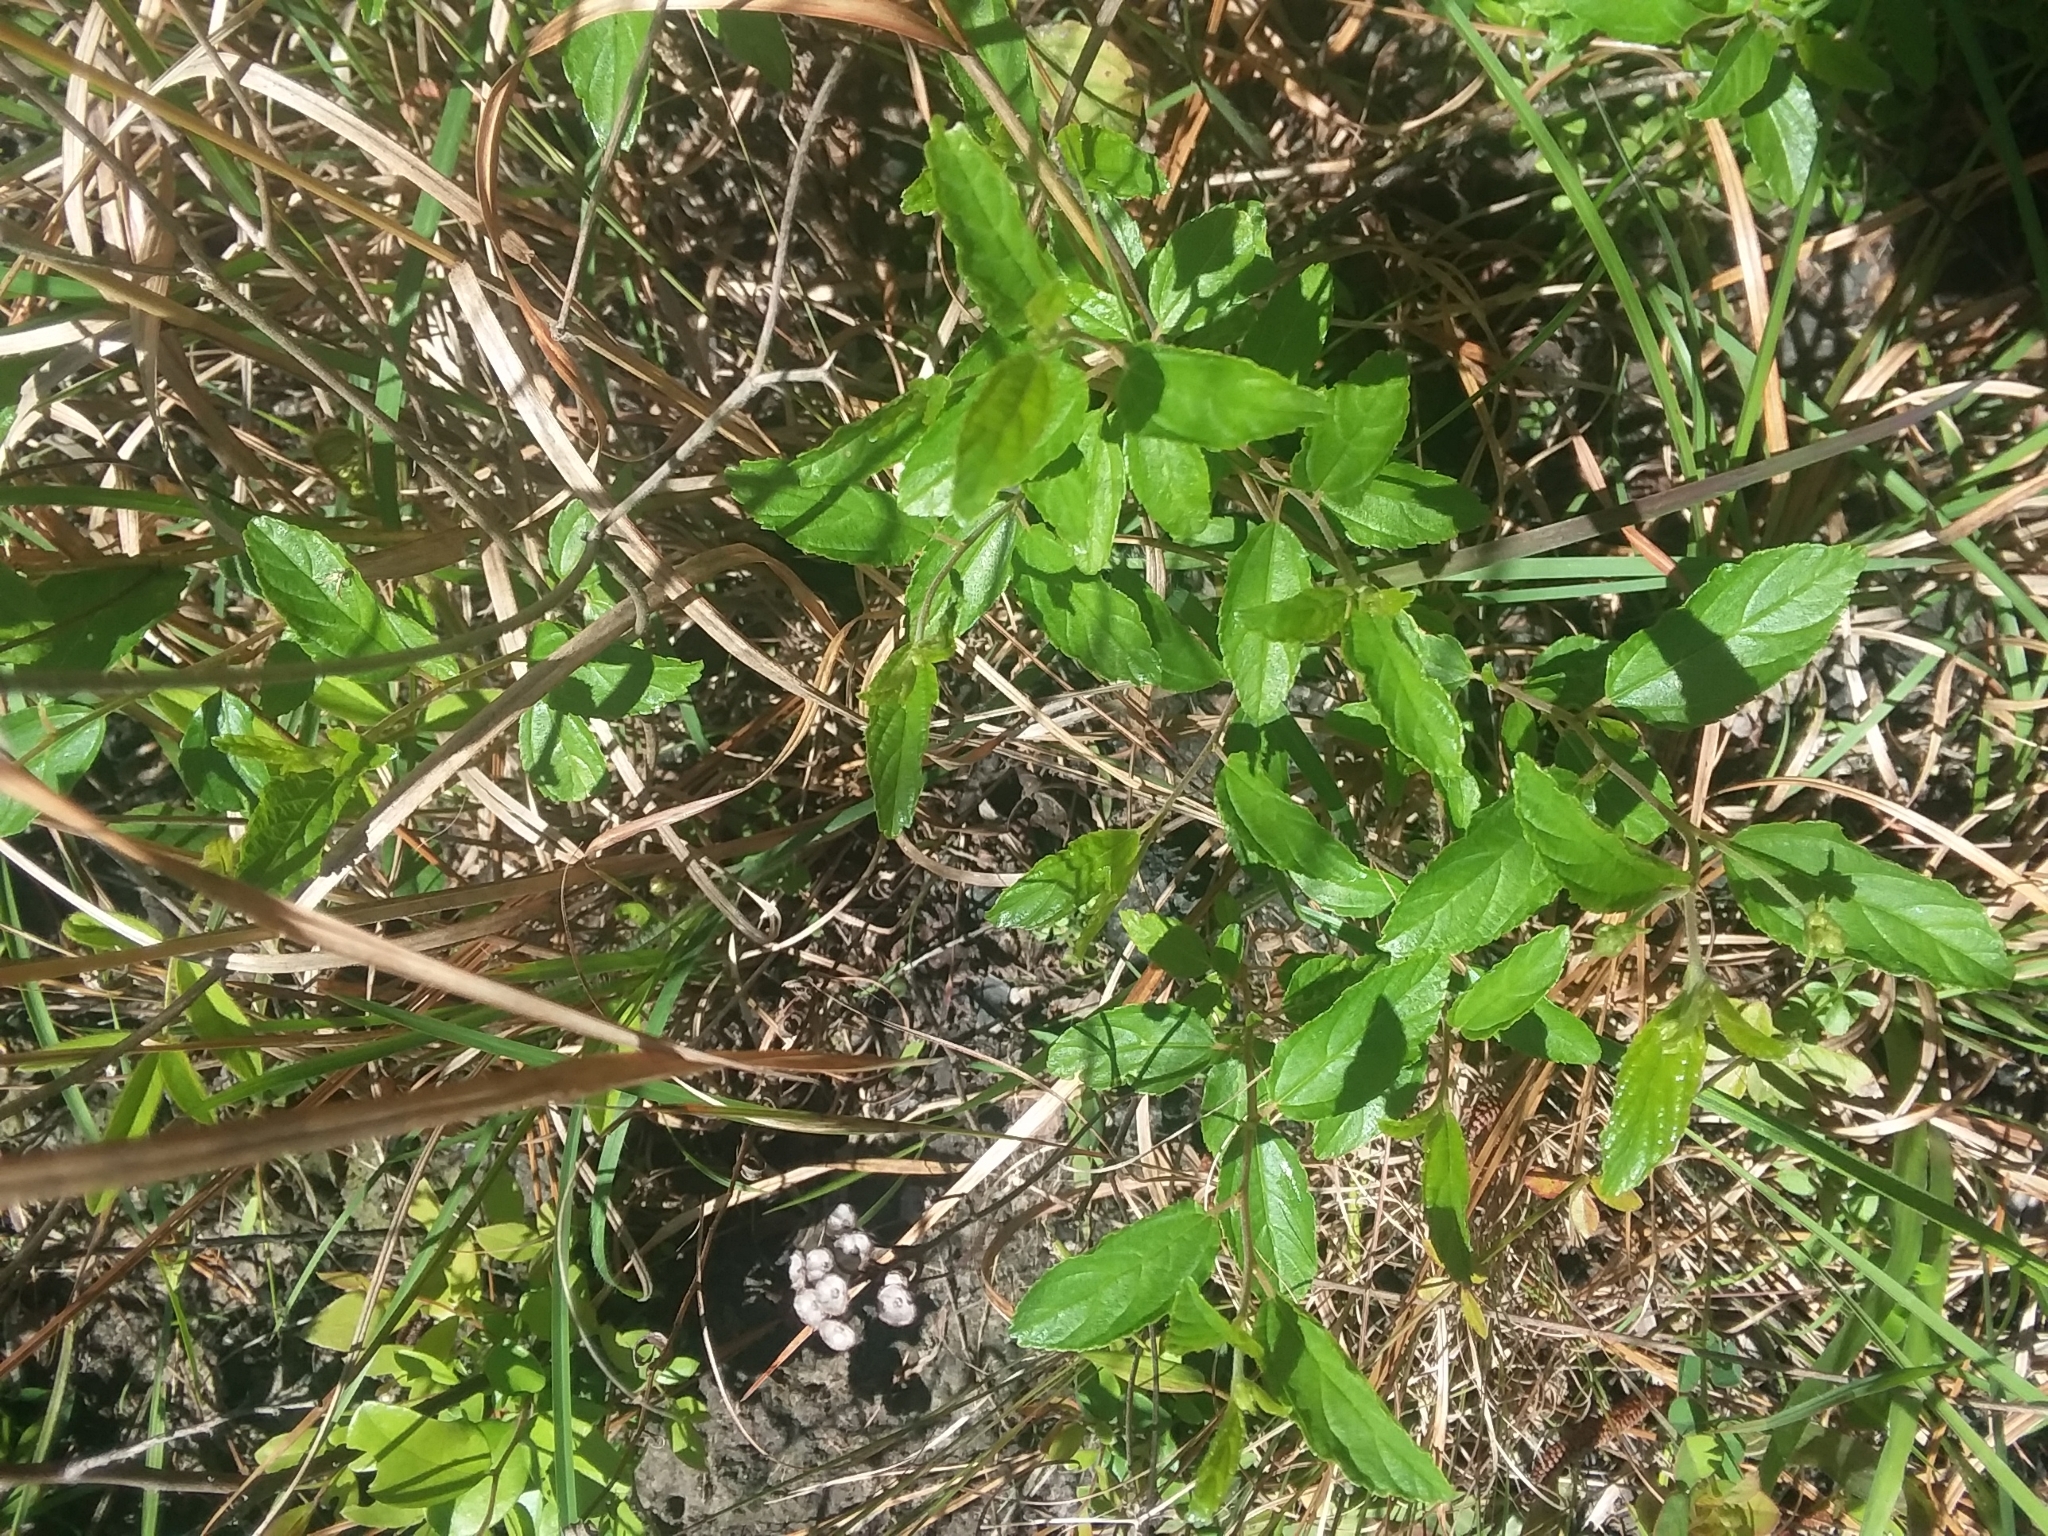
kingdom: Plantae
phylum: Tracheophyta
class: Magnoliopsida
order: Rosales
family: Rhamnaceae
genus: Ceanothus
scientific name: Ceanothus americanus
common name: Redroot
